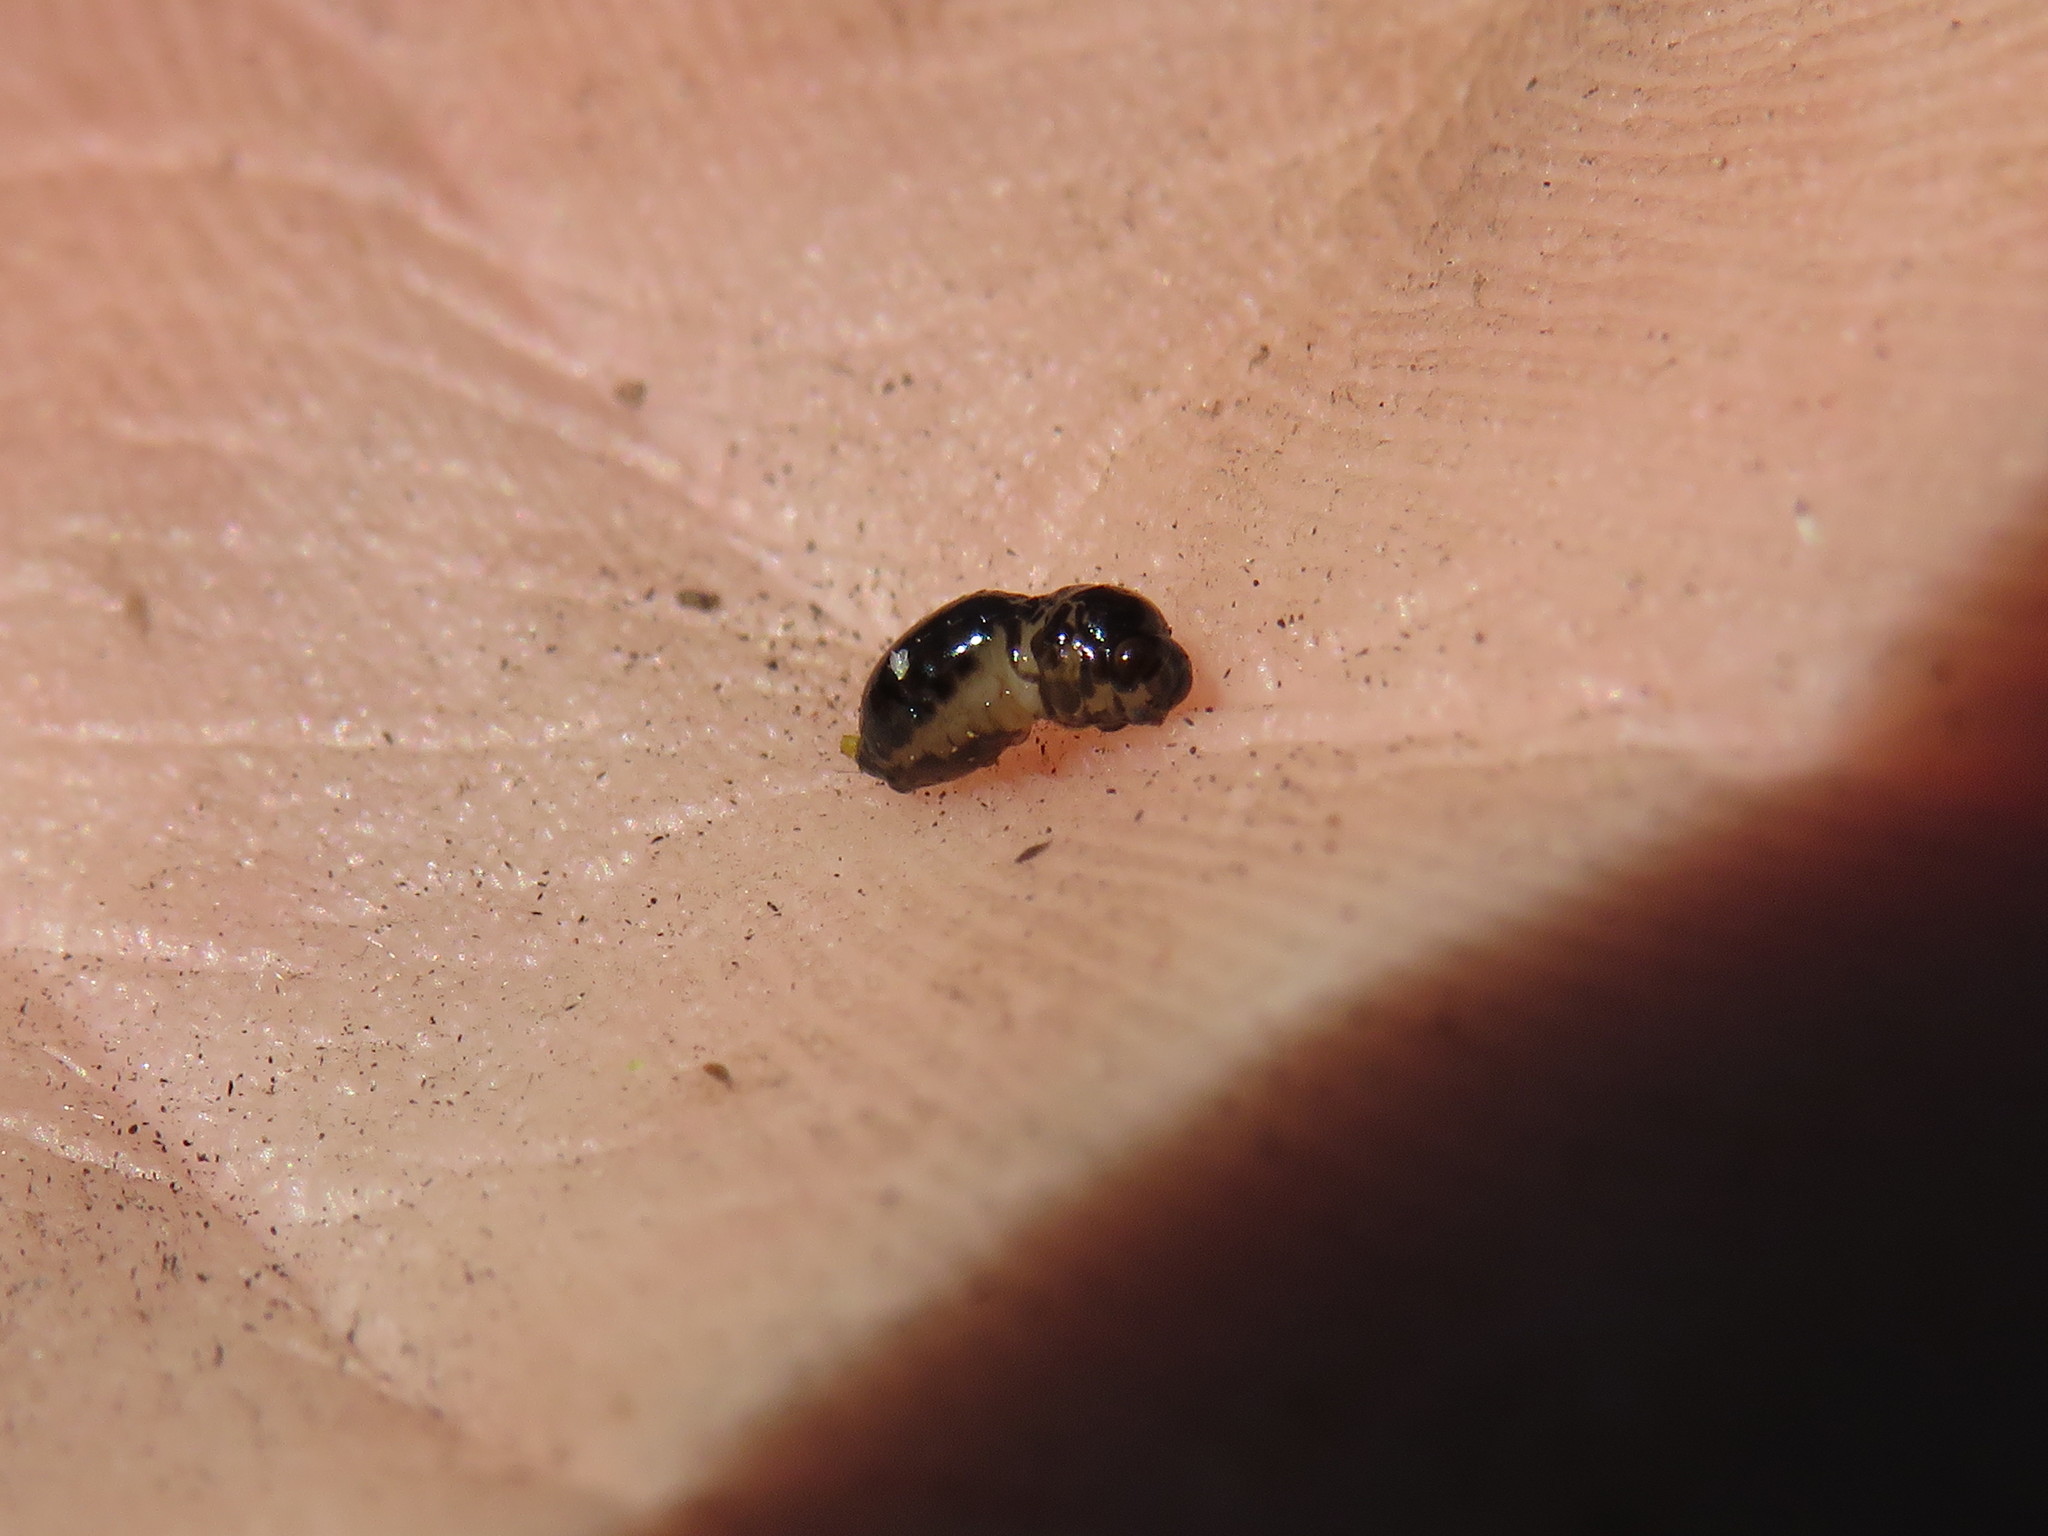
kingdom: Animalia
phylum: Arthropoda
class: Insecta
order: Hymenoptera
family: Pteromalidae
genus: Trichilogaster
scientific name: Trichilogaster acaciaelongifoliae
